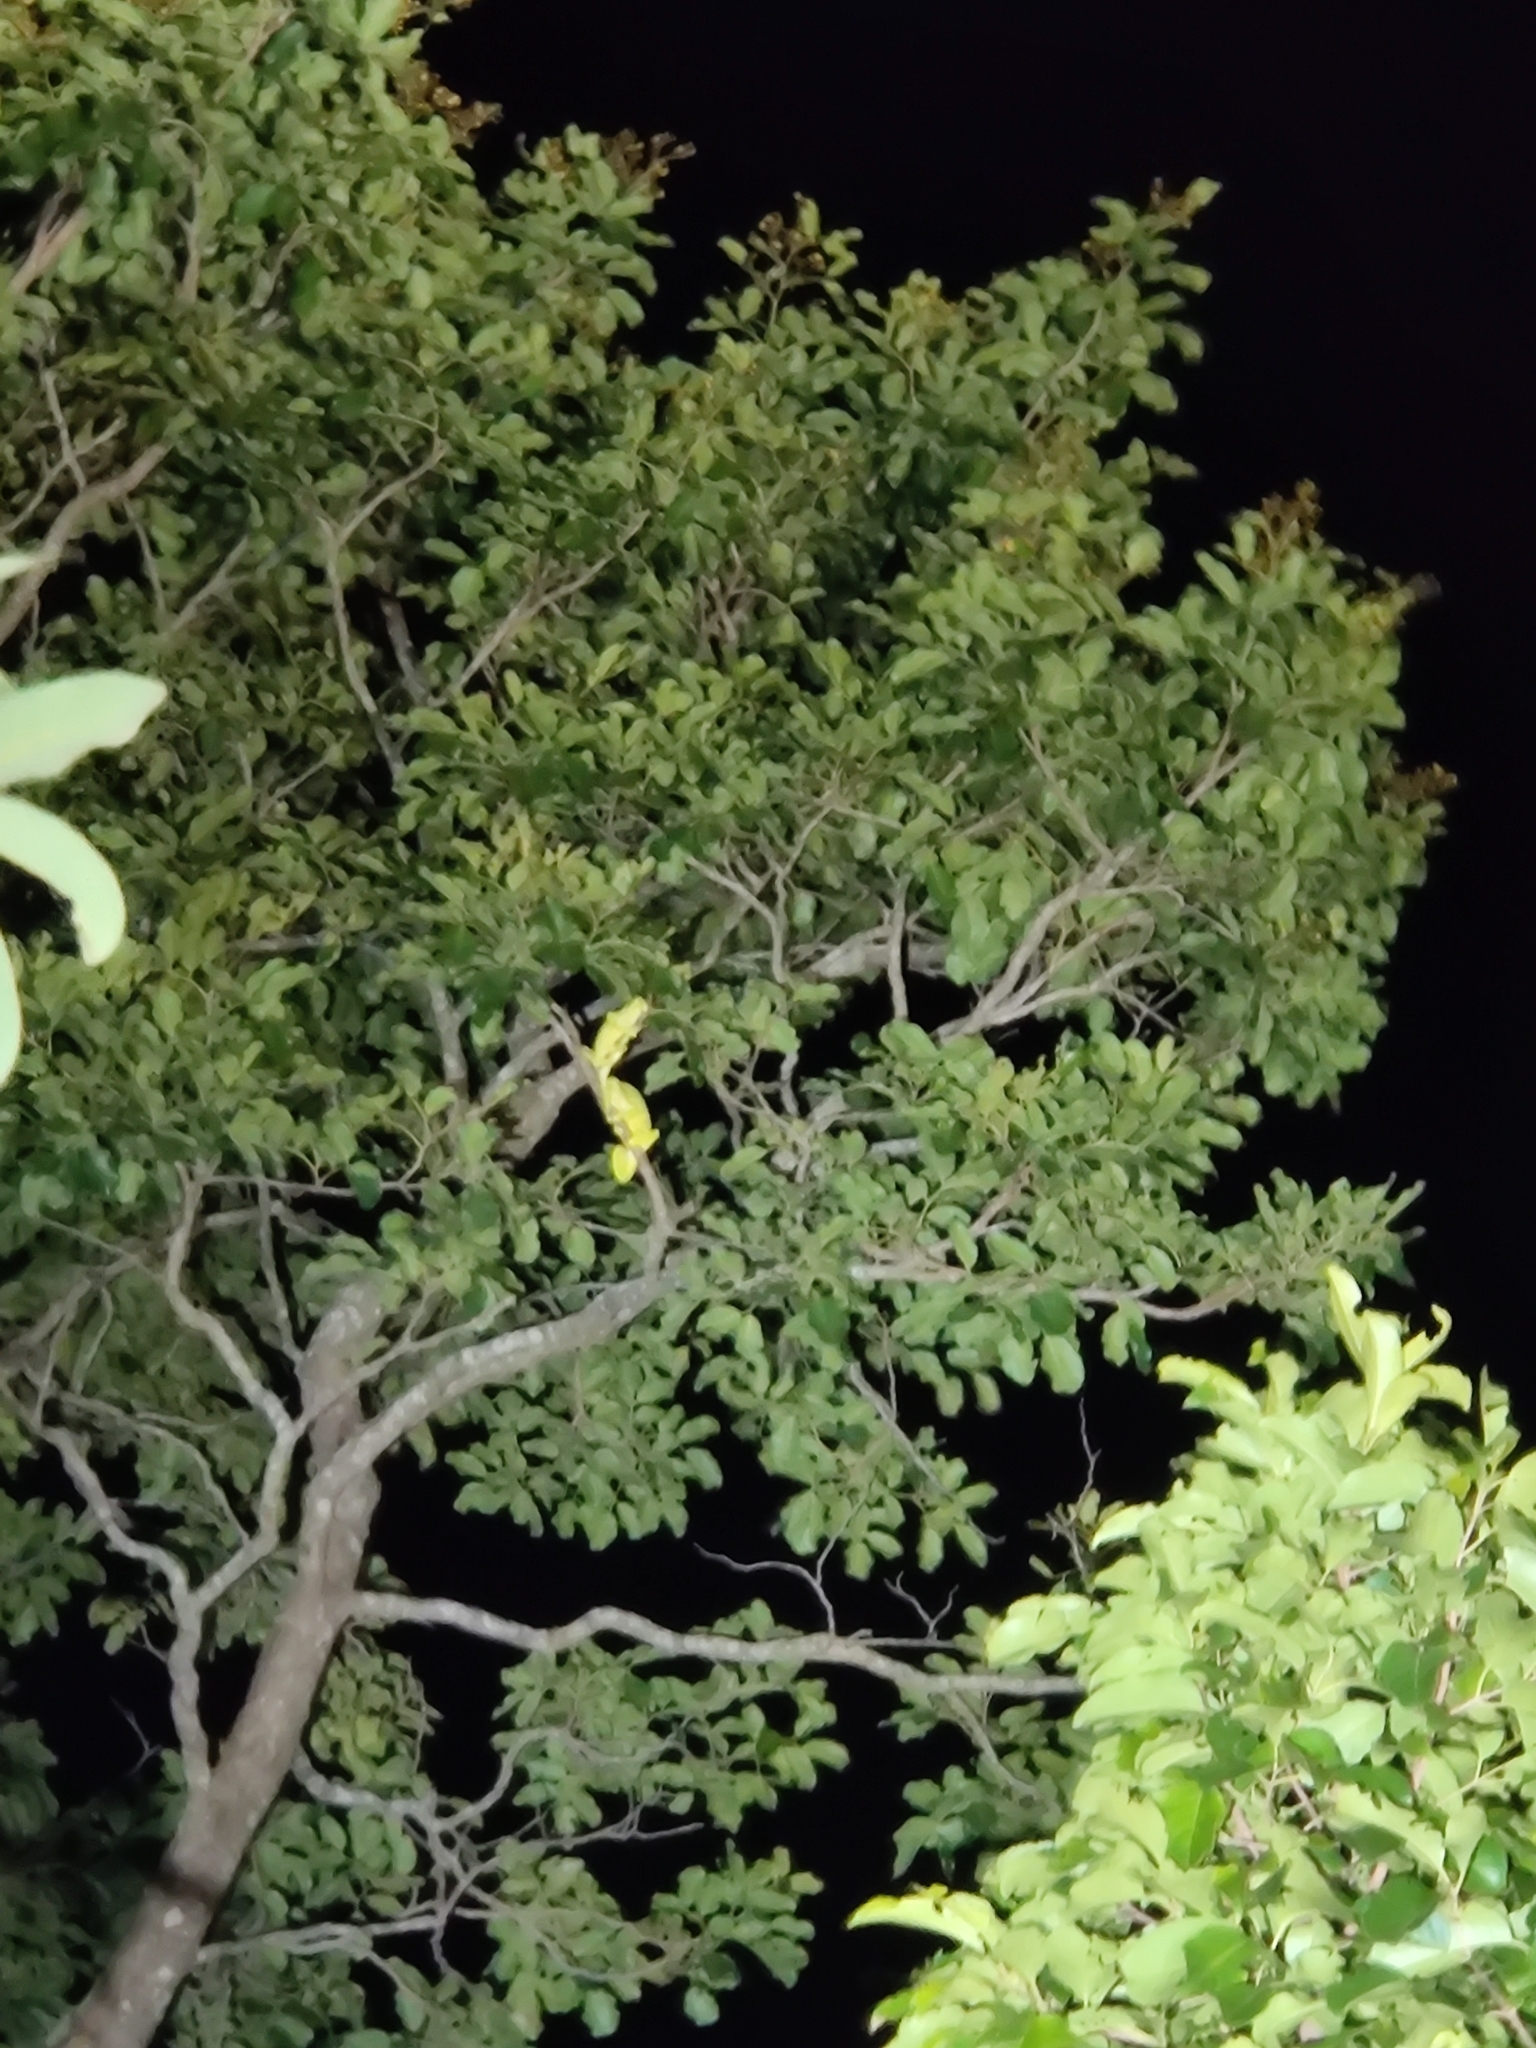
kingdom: Animalia
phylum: Chordata
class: Squamata
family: Chamaeleonidae
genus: Chamaeleo
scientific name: Chamaeleo zeylanicus
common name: Indian chameleon
